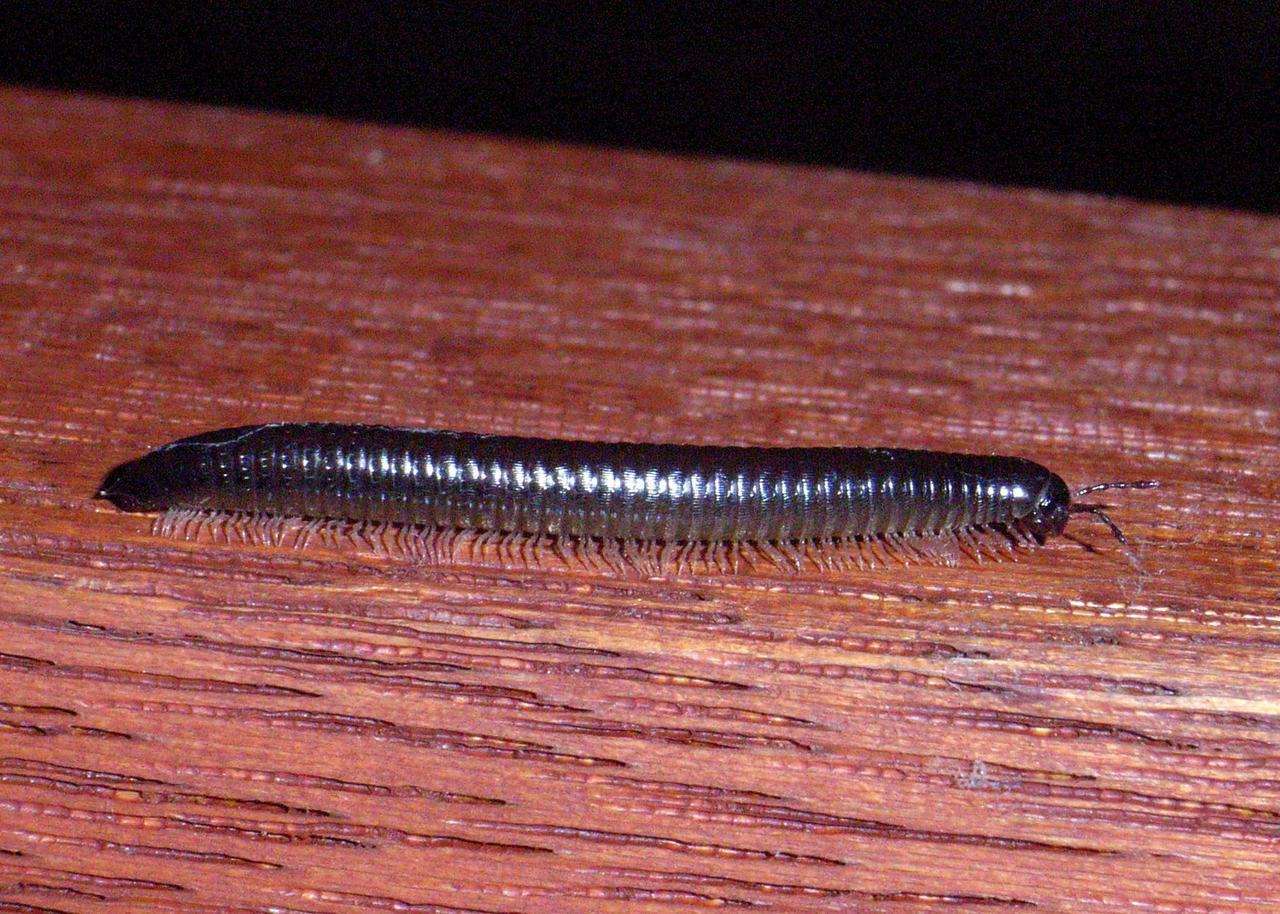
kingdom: Animalia
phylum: Arthropoda
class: Diplopoda
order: Julida
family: Julidae
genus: Ommatoiulus
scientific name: Ommatoiulus moreleti
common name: Portuguese millipede
